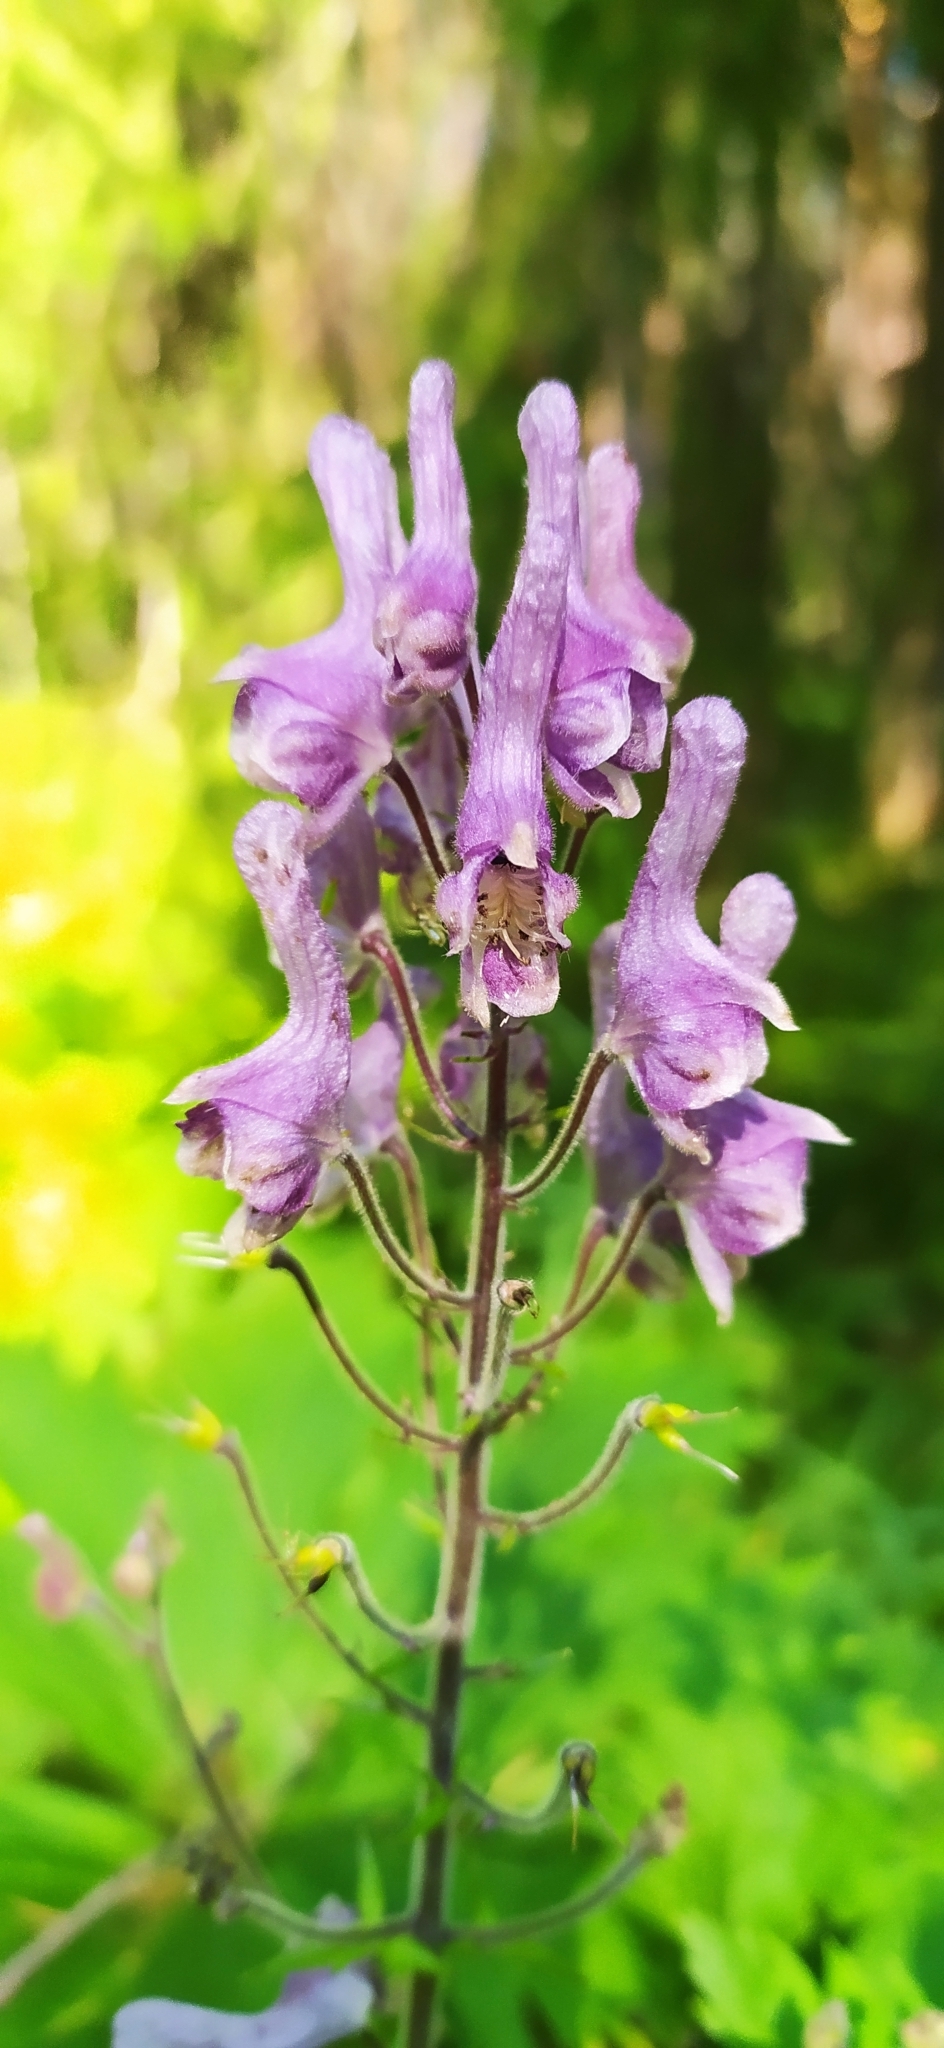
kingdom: Plantae
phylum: Tracheophyta
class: Magnoliopsida
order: Ranunculales
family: Ranunculaceae
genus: Aconitum
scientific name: Aconitum septentrionale
